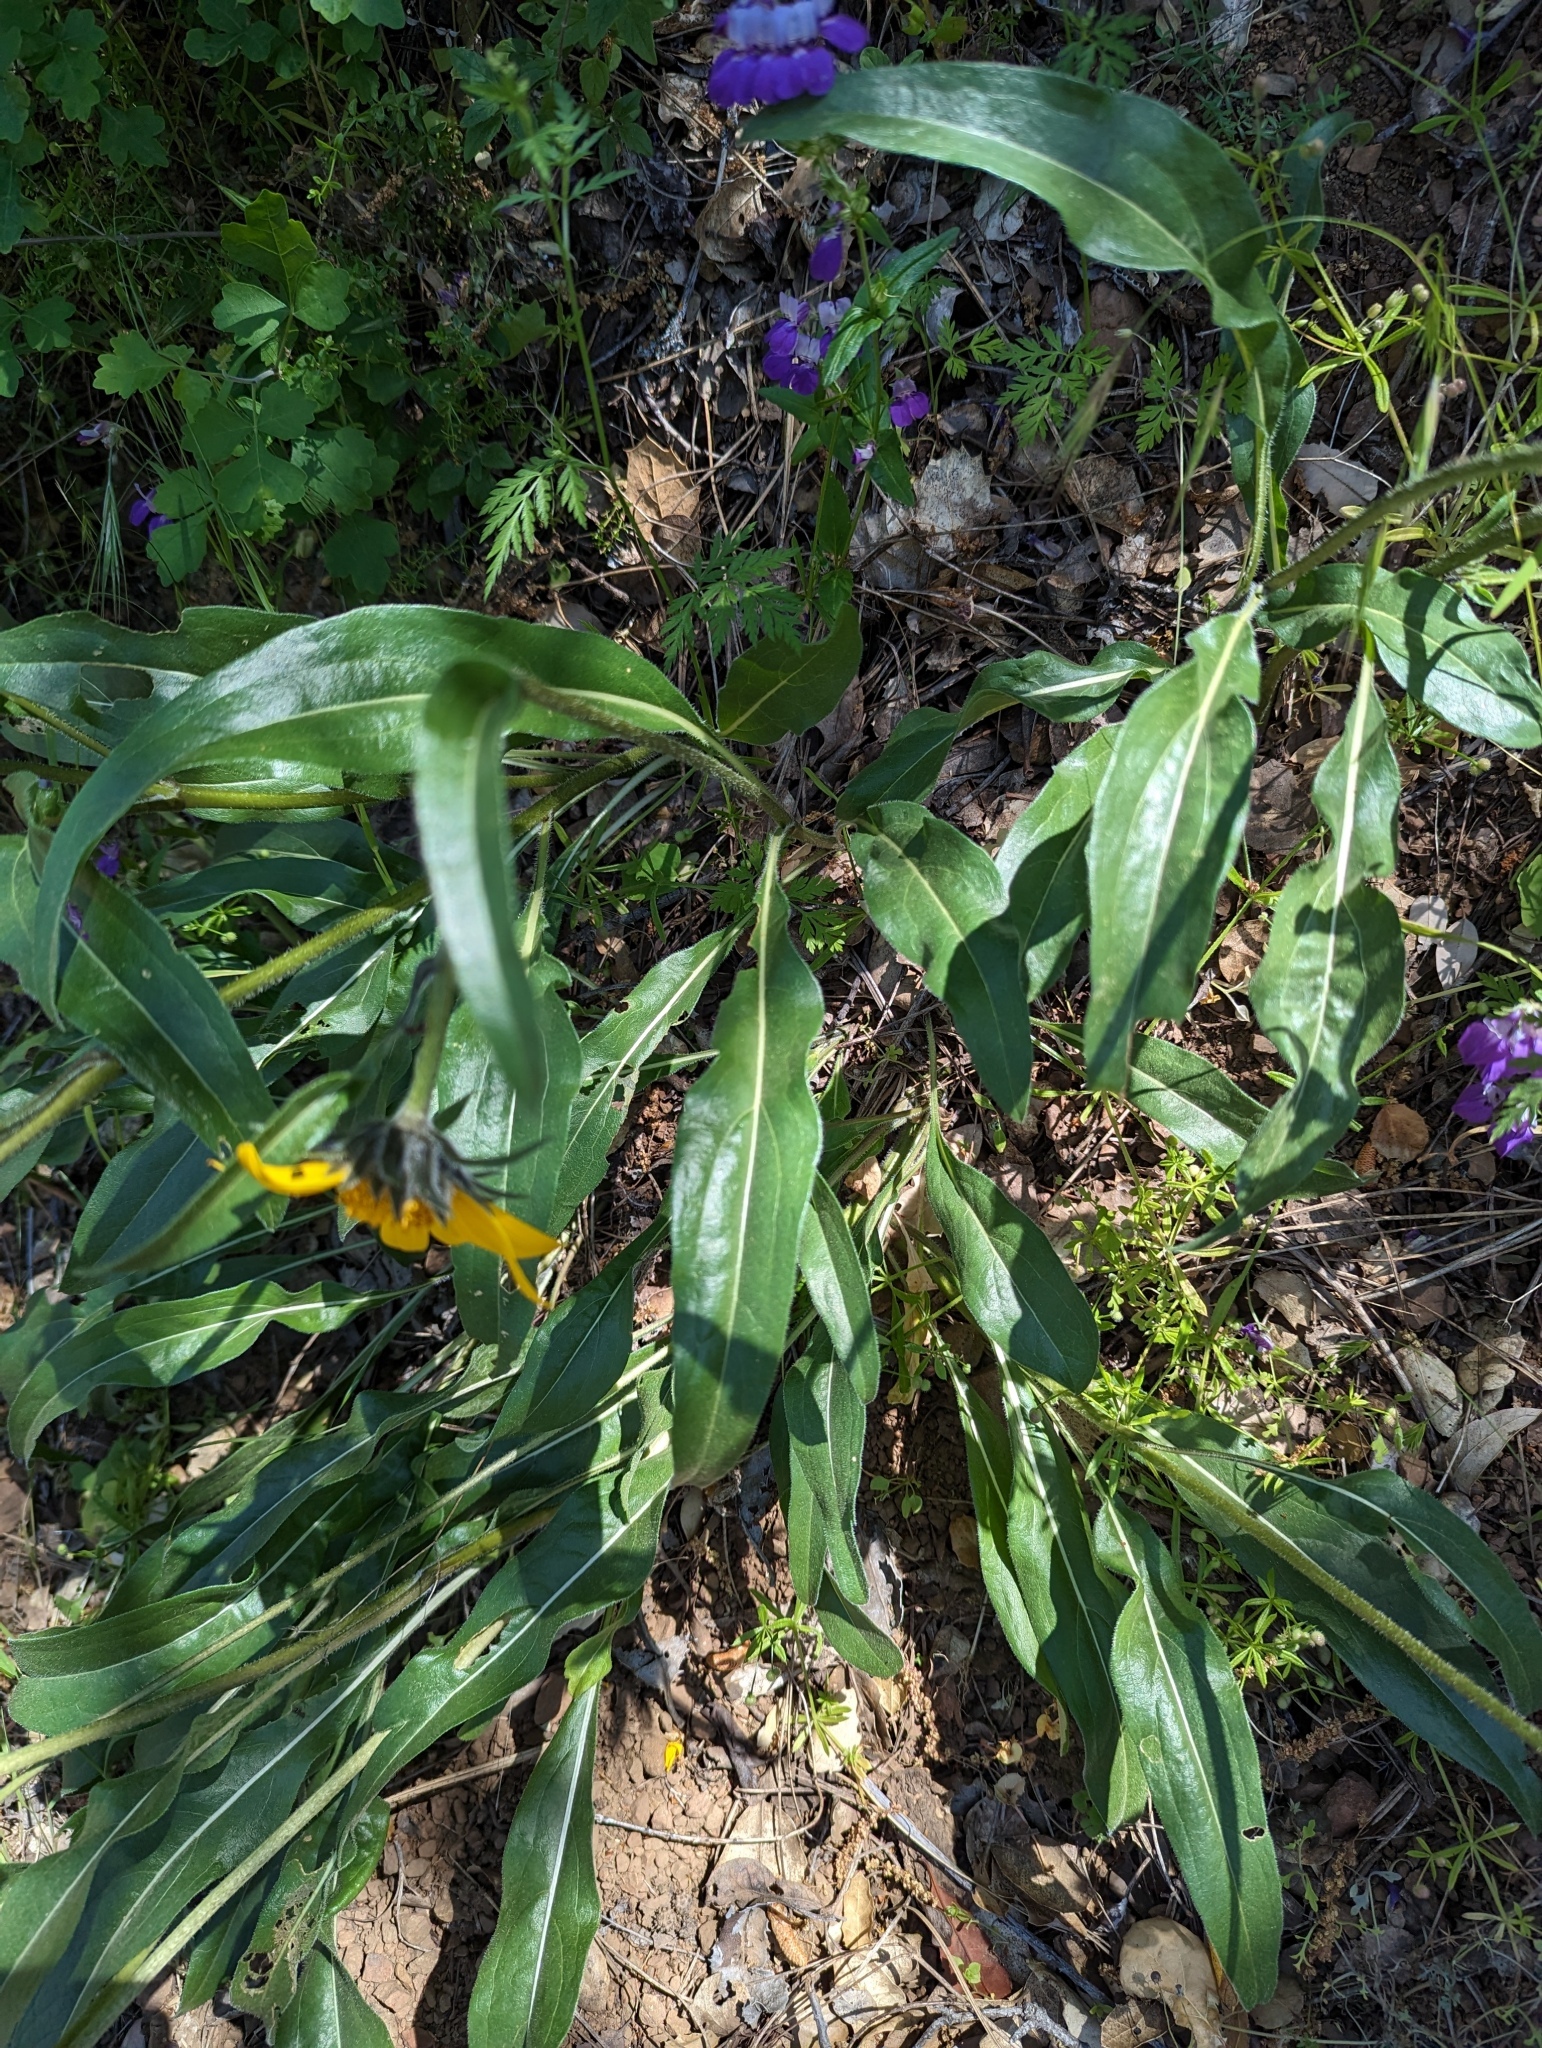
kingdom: Plantae
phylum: Tracheophyta
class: Magnoliopsida
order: Asterales
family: Asteraceae
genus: Helianthella
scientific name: Helianthella castanea
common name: Diablo helianthella
